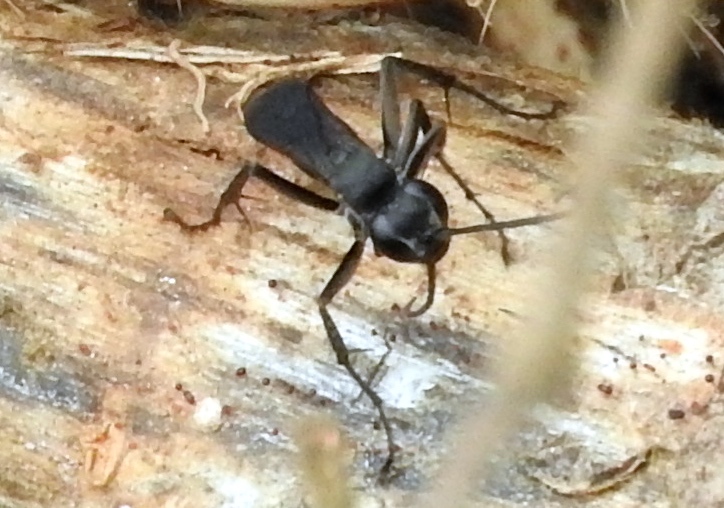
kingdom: Animalia
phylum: Arthropoda
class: Insecta
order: Hymenoptera
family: Pompilidae
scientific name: Pompilidae
